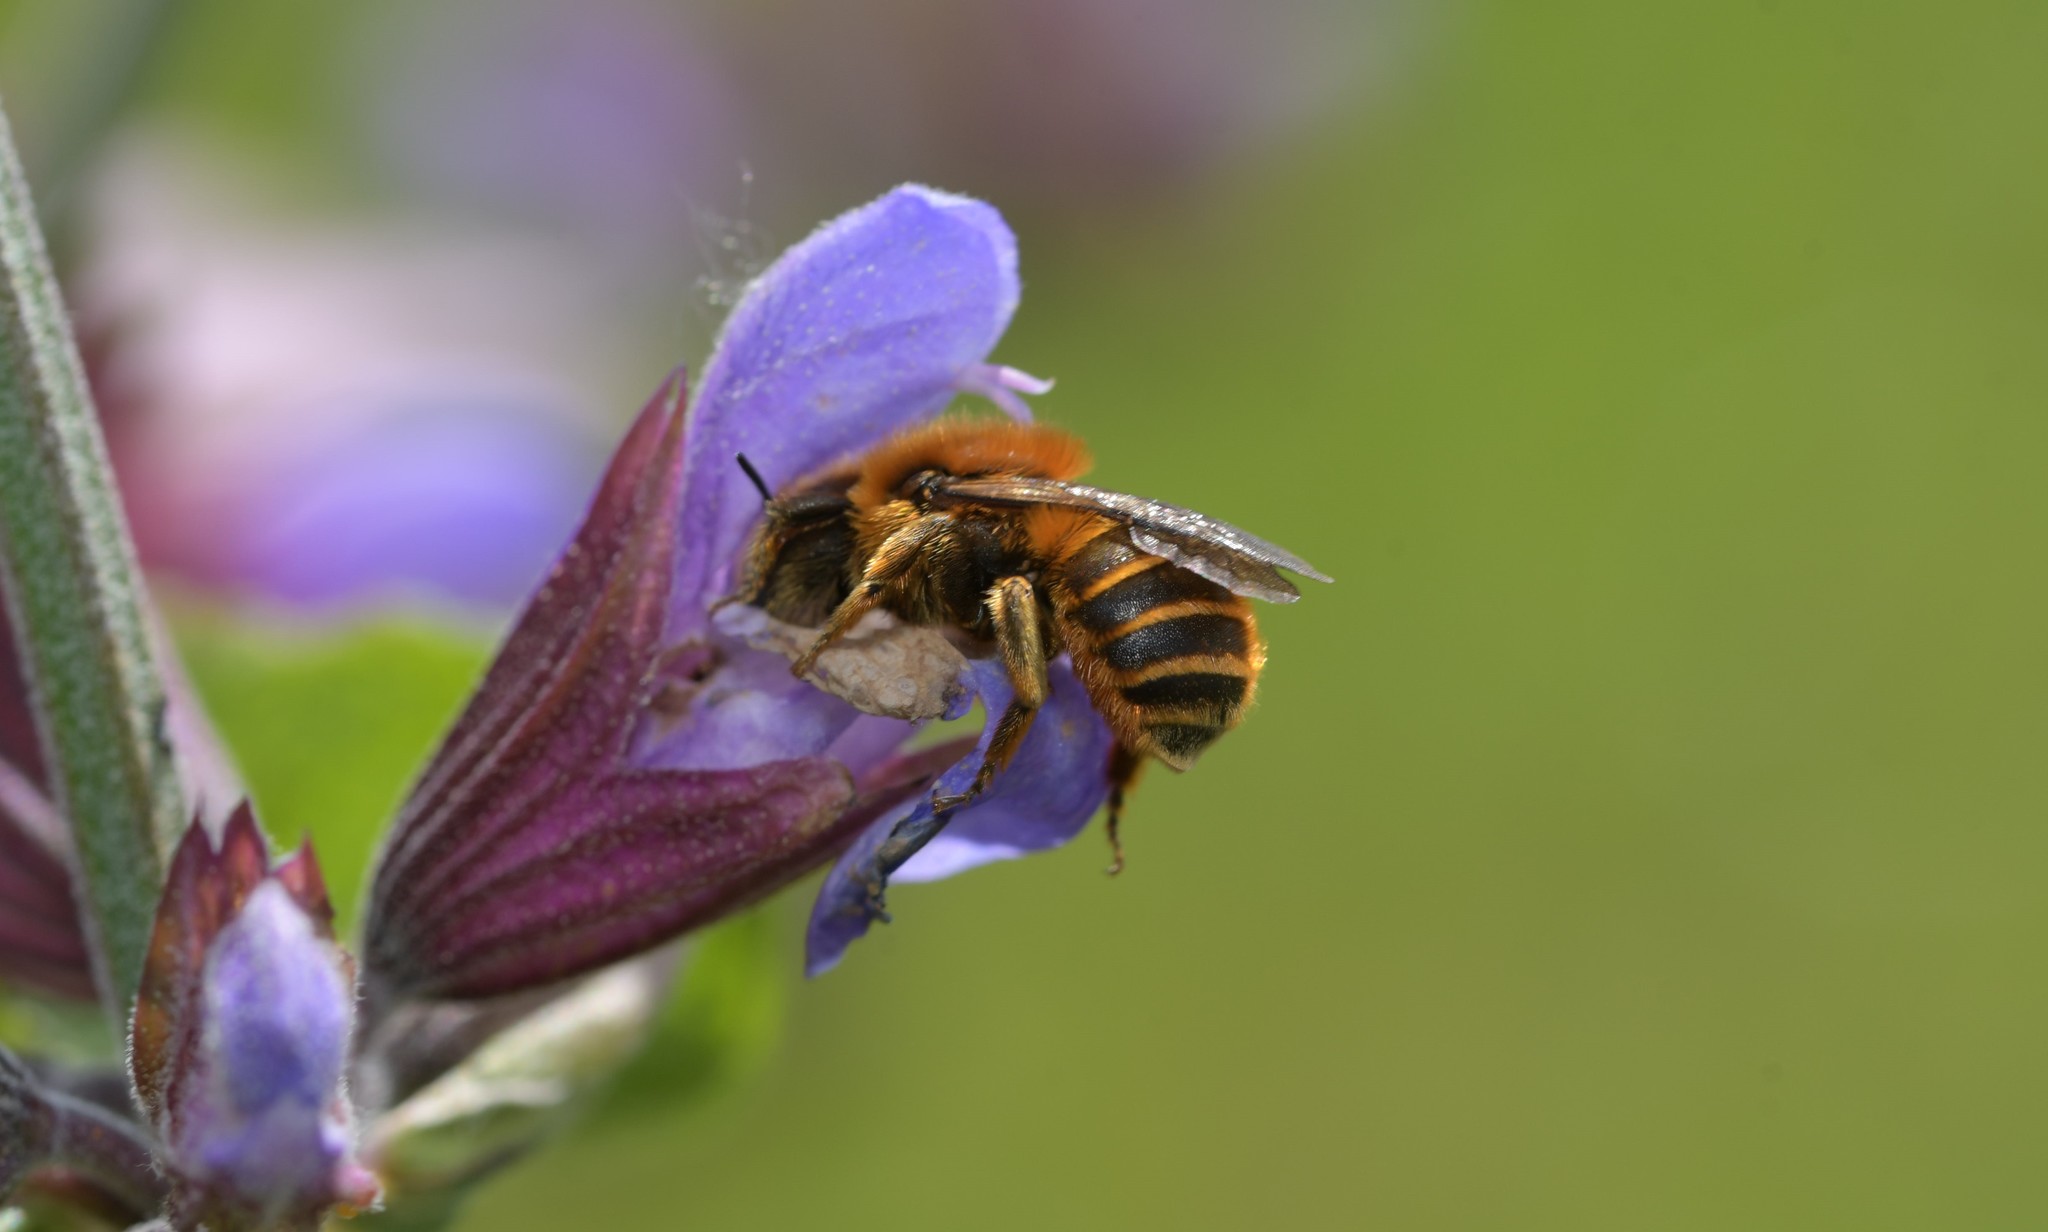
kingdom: Animalia
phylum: Arthropoda
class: Insecta
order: Hymenoptera
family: Megachilidae
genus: Osmia
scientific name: Osmia aurulenta
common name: Gold-fringed mason bee
